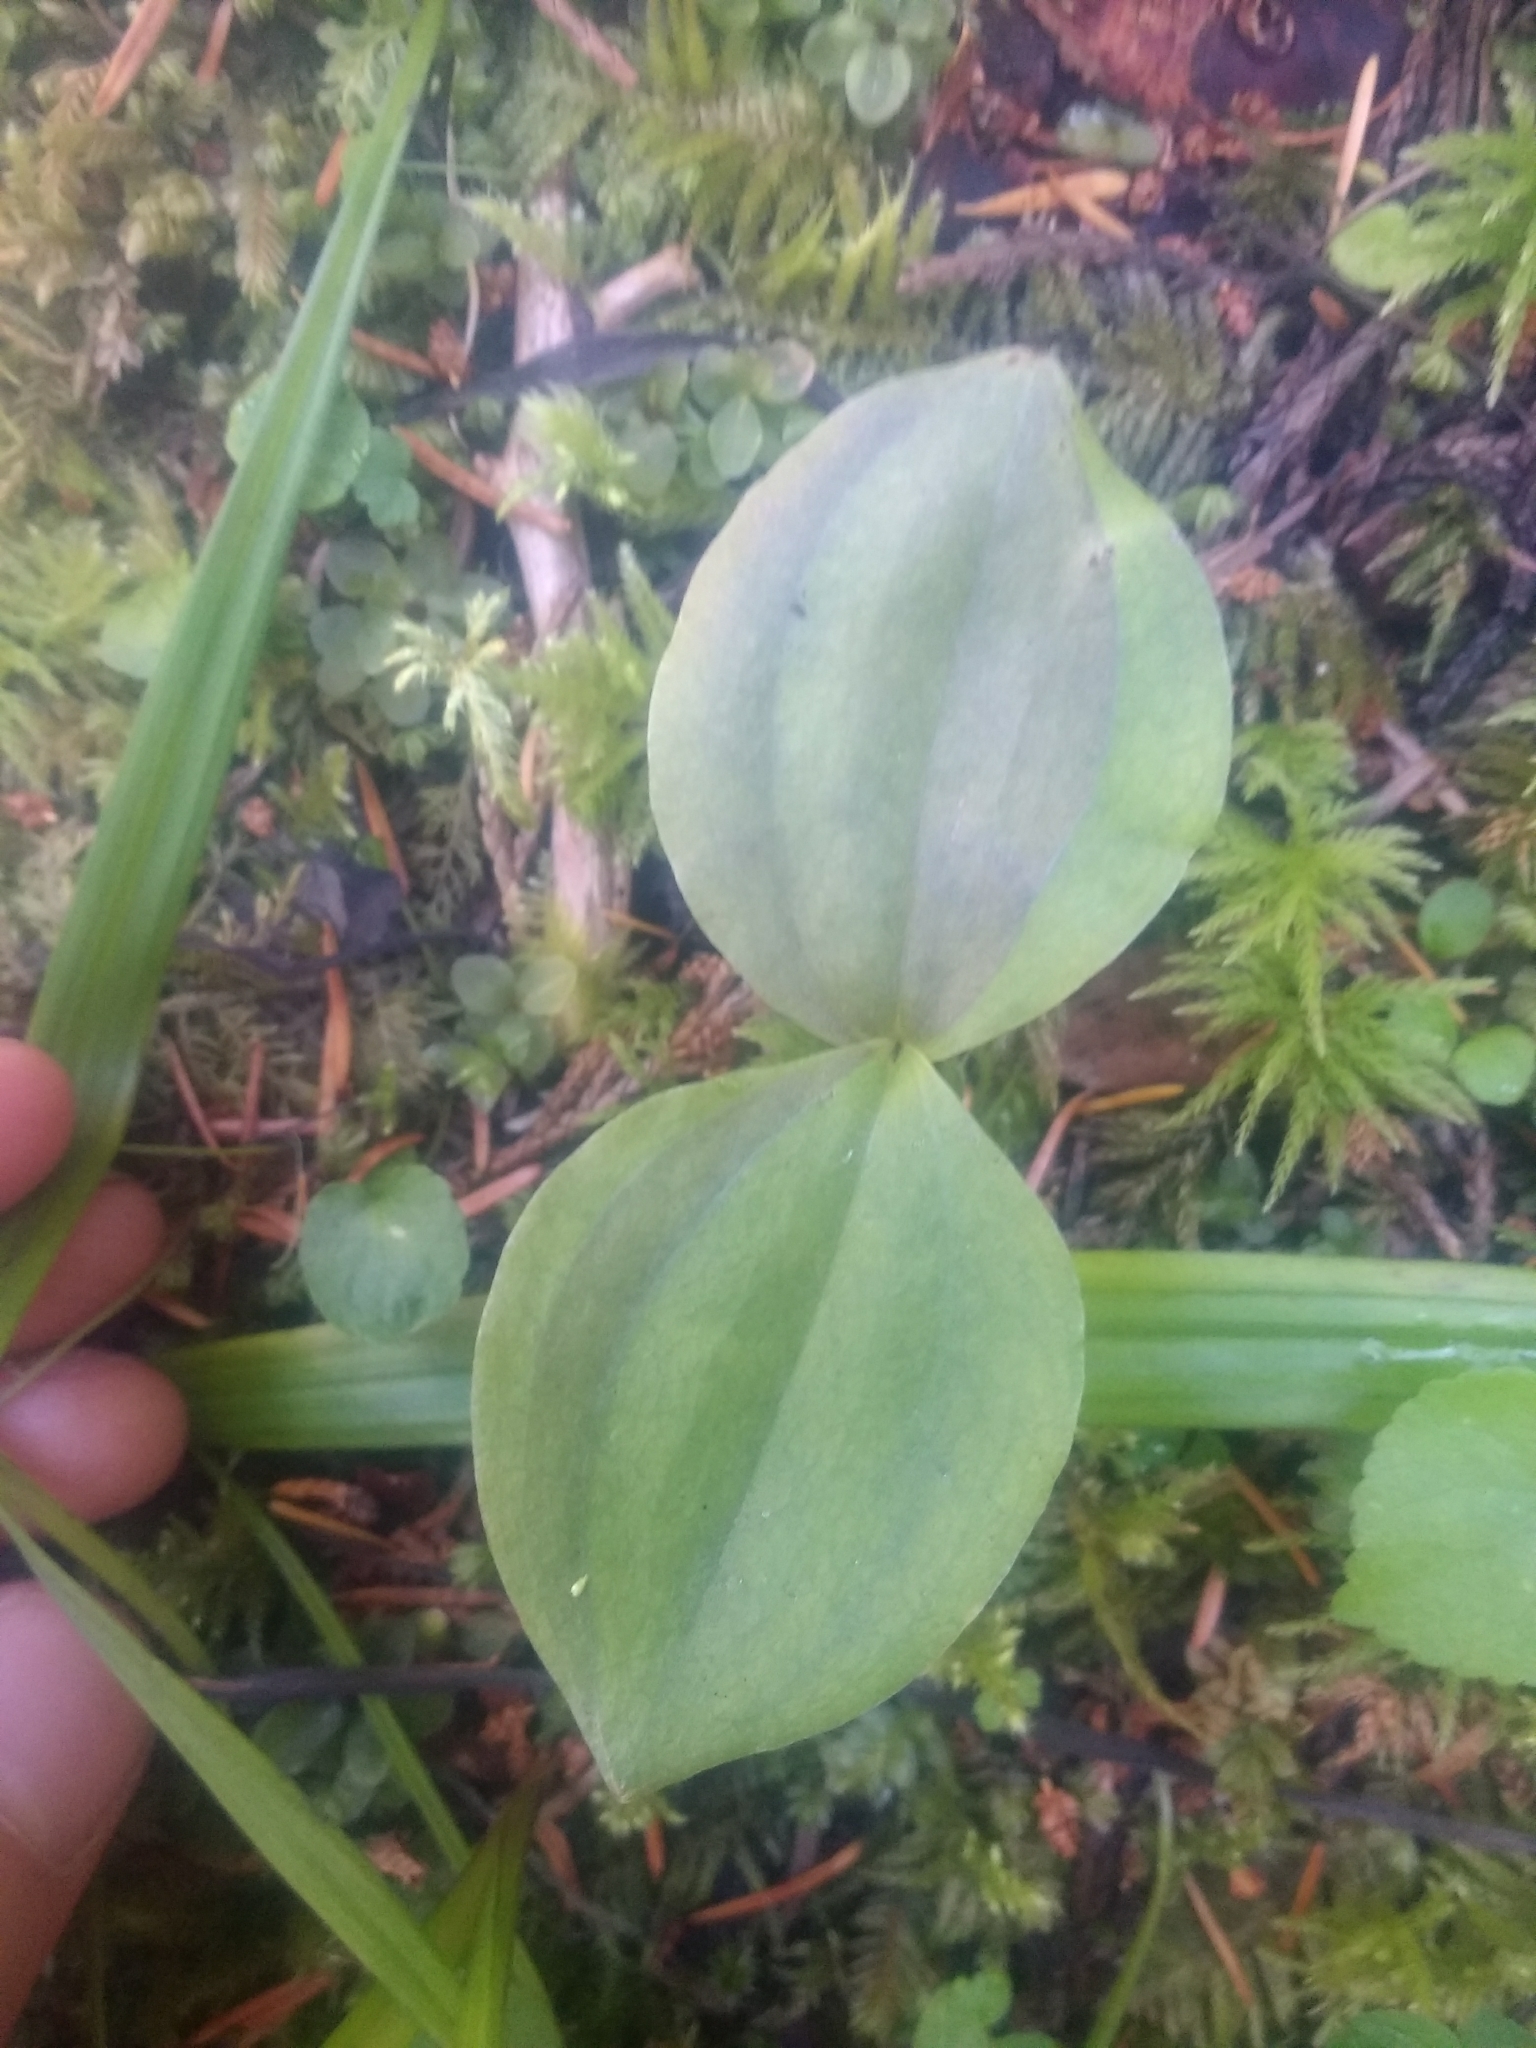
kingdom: Plantae
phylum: Tracheophyta
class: Liliopsida
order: Asparagales
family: Orchidaceae
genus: Neottia
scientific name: Neottia convallarioides
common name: Broadleaf twayblade
